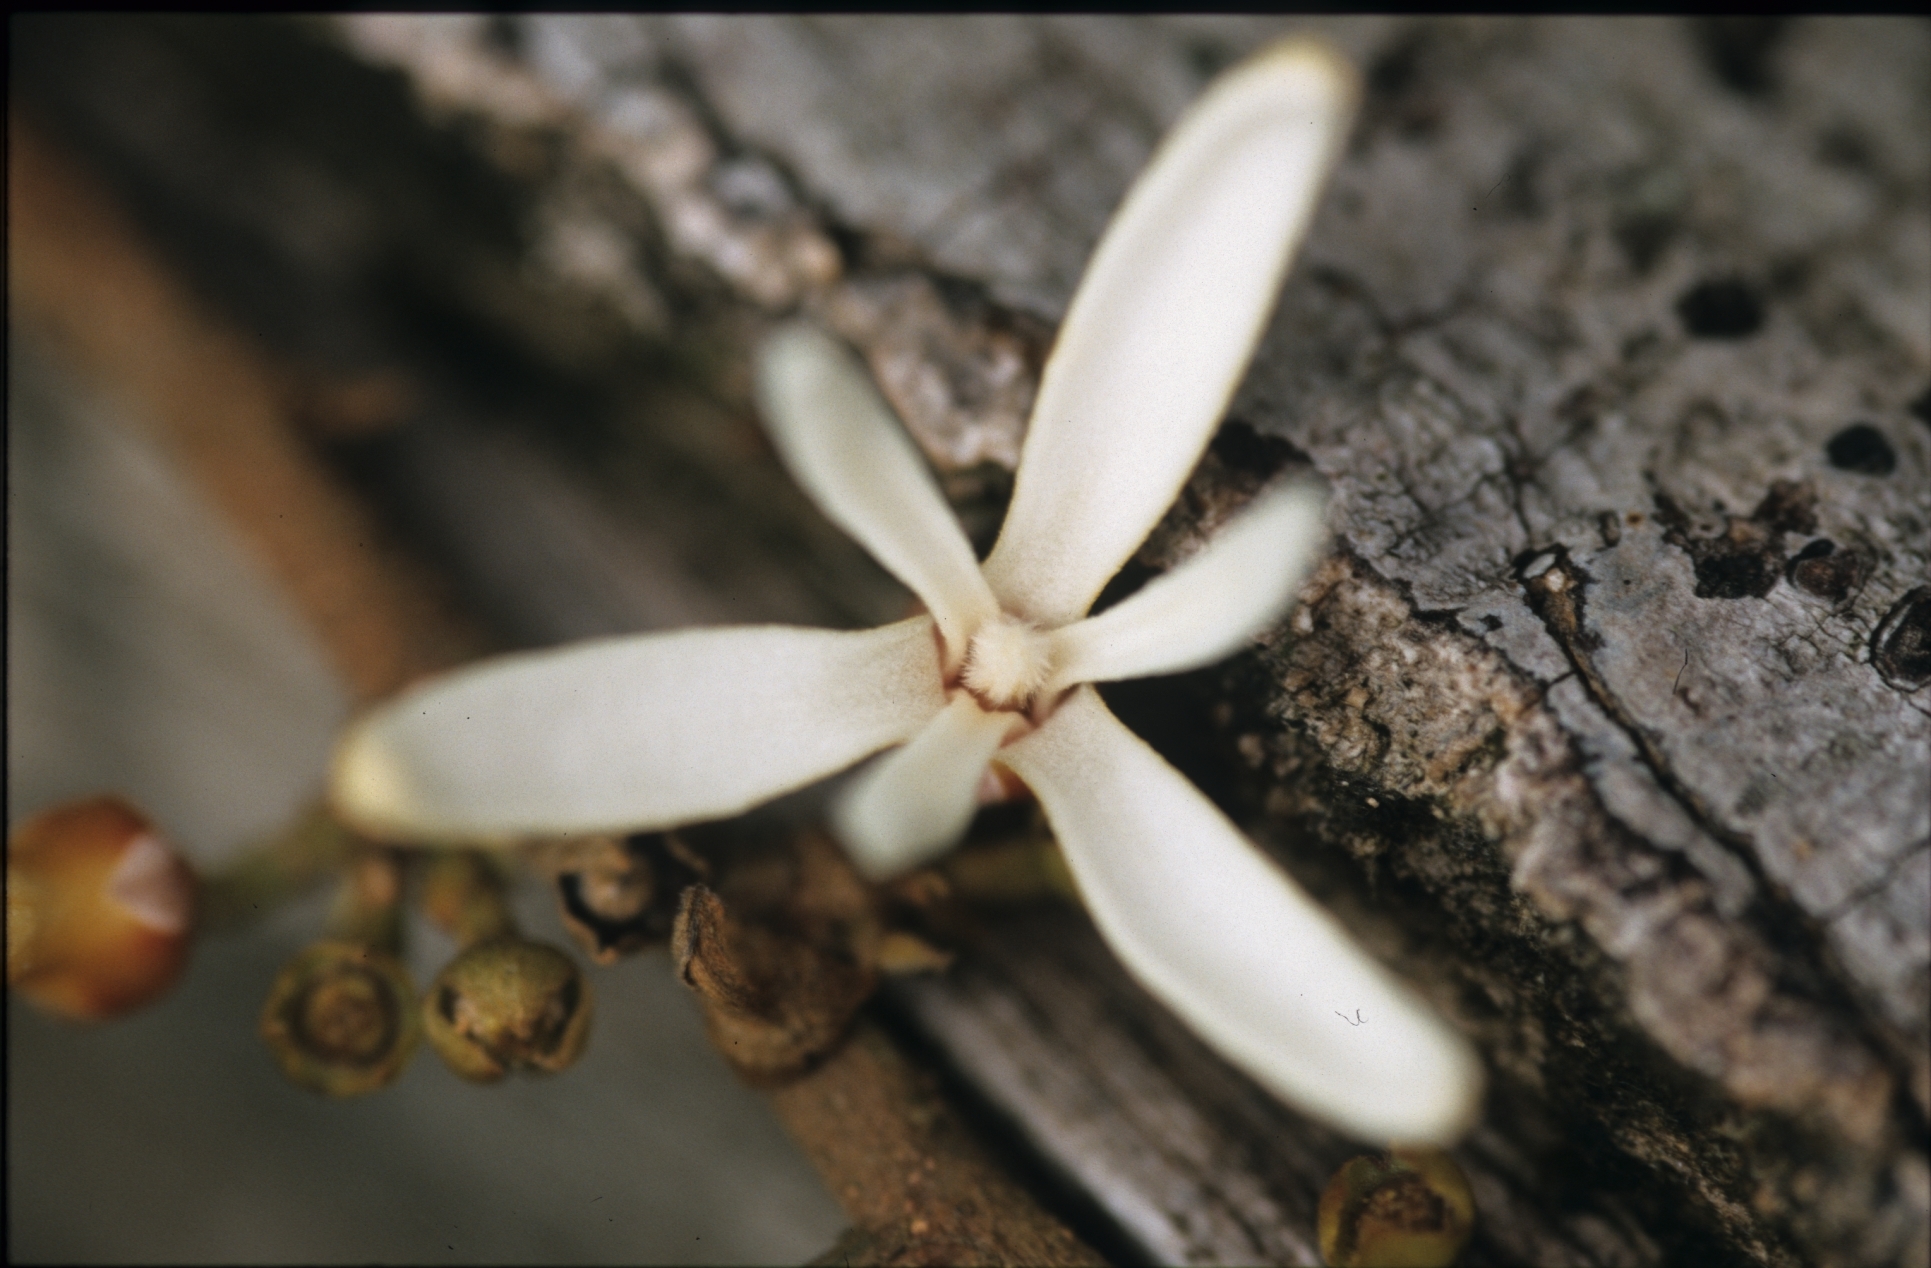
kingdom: Plantae
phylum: Tracheophyta
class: Magnoliopsida
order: Magnoliales
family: Annonaceae
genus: Xylopia
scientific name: Xylopia calophylla
